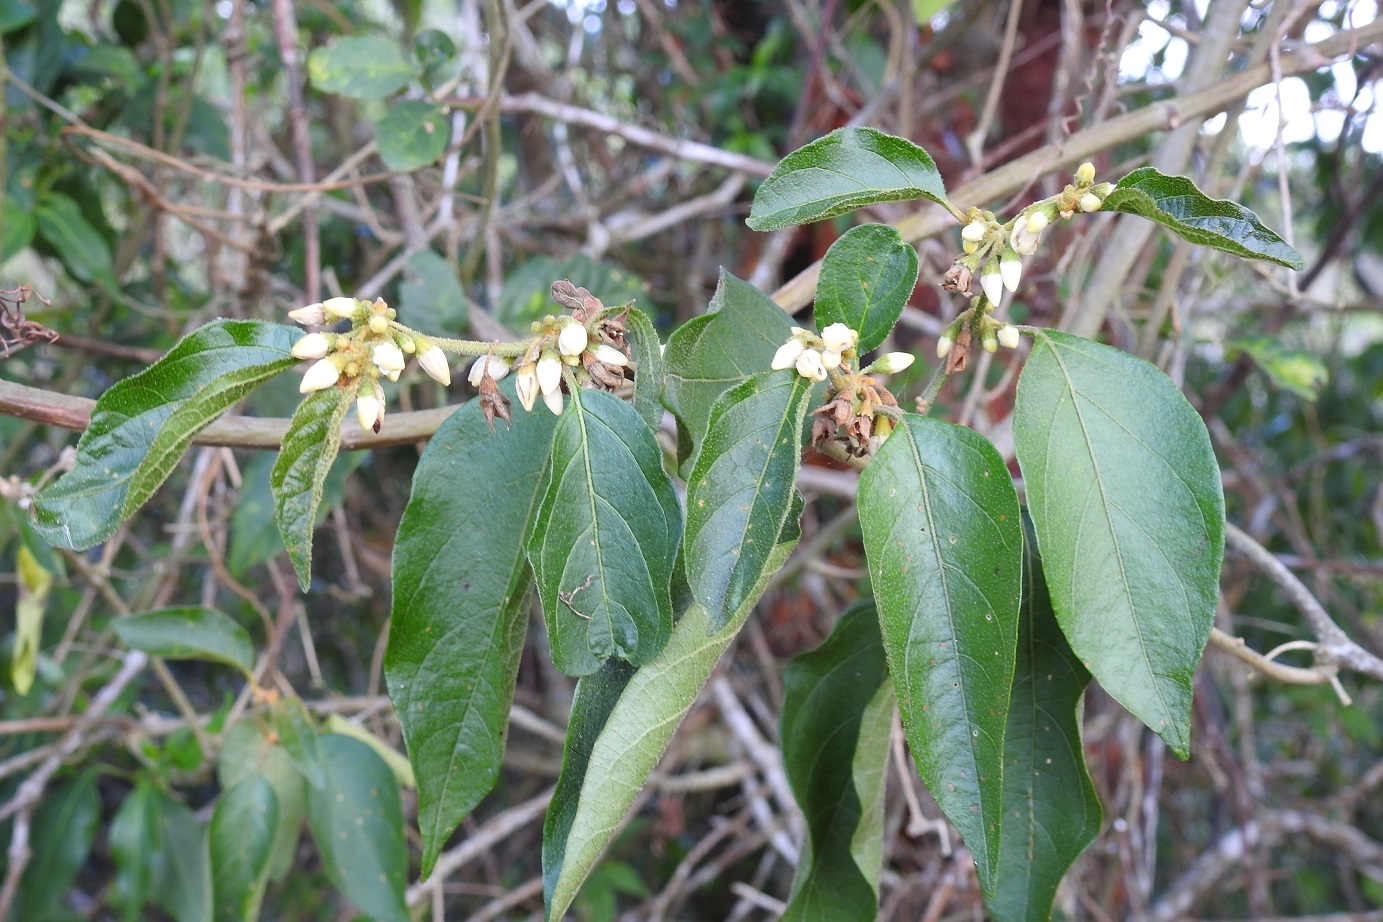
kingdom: Plantae
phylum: Tracheophyta
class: Magnoliopsida
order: Solanales
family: Solanaceae
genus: Solanum
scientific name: Solanum lanceifolium
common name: Lanceleaf nightshade
